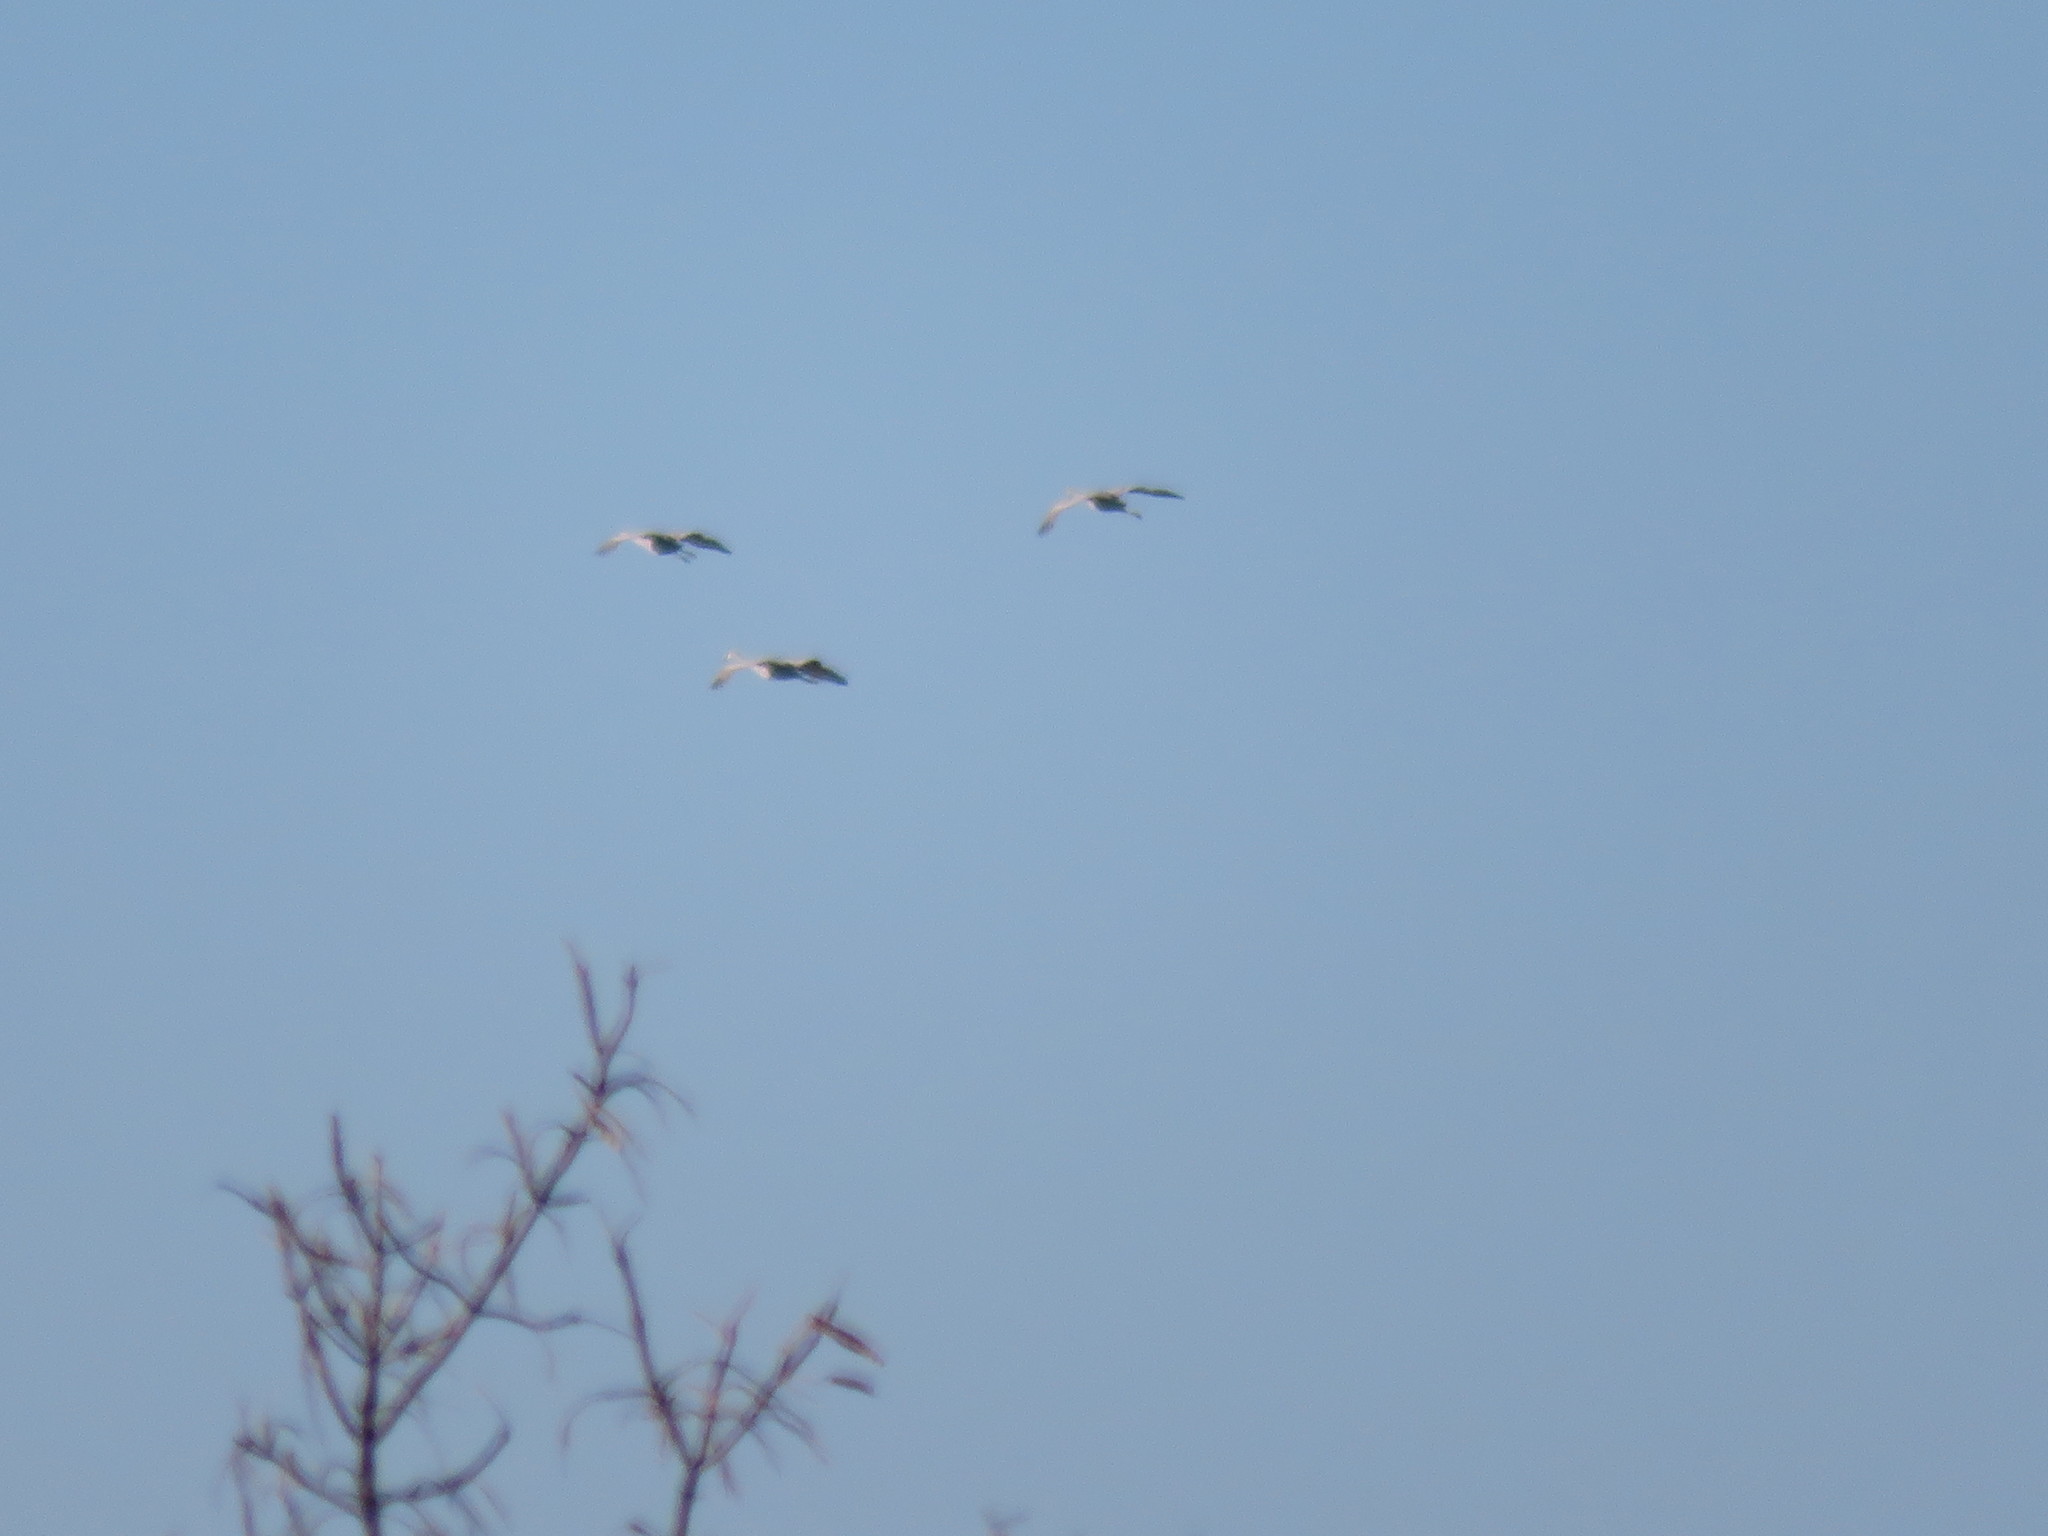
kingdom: Animalia
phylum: Chordata
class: Aves
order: Gruiformes
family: Gruidae
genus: Grus
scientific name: Grus canadensis
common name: Sandhill crane
